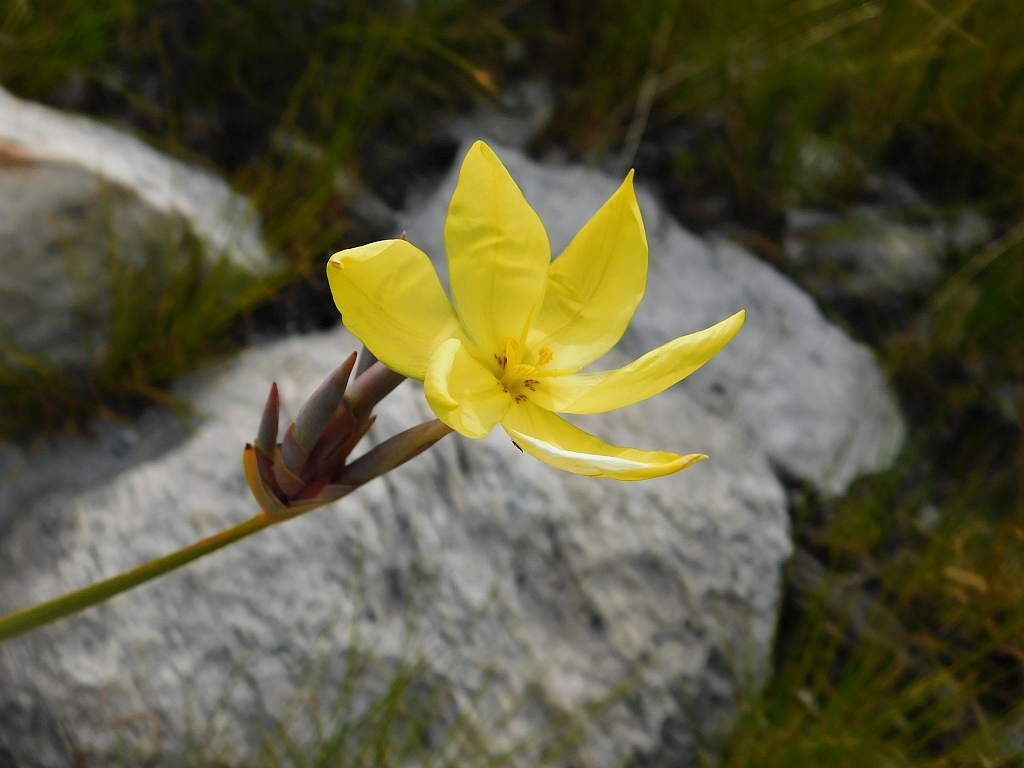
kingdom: Plantae
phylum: Tracheophyta
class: Liliopsida
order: Asparagales
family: Iridaceae
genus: Bobartia
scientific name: Bobartia gladiata
